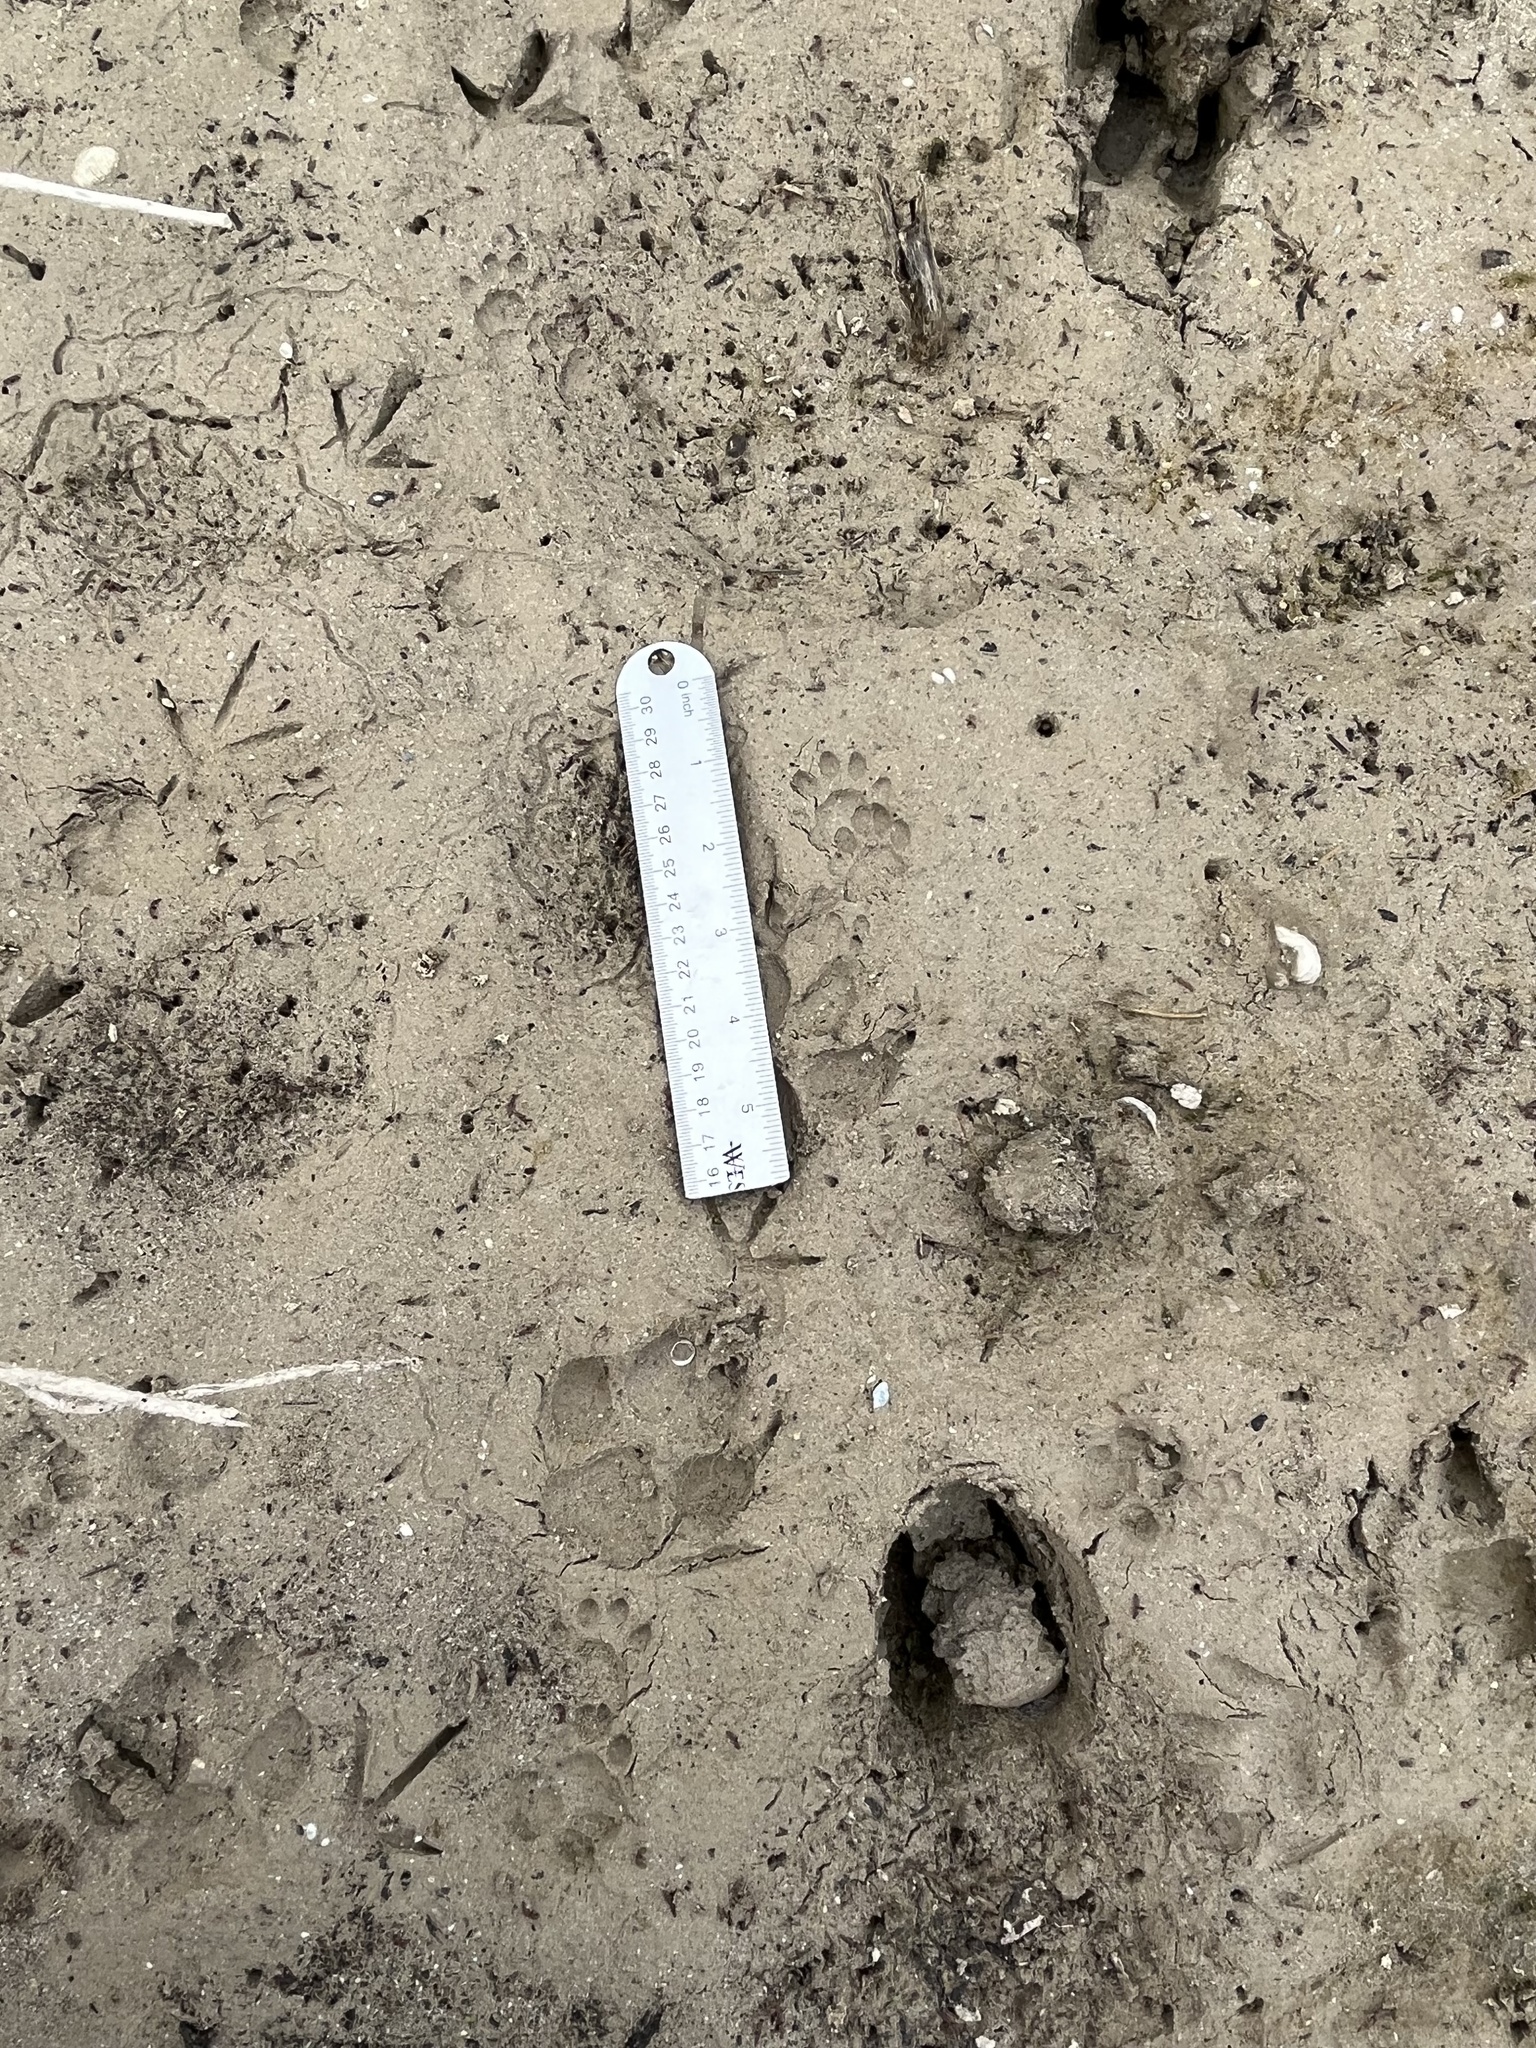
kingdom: Animalia
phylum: Chordata
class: Mammalia
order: Carnivora
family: Procyonidae
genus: Bassariscus
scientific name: Bassariscus astutus
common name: Ringtail
